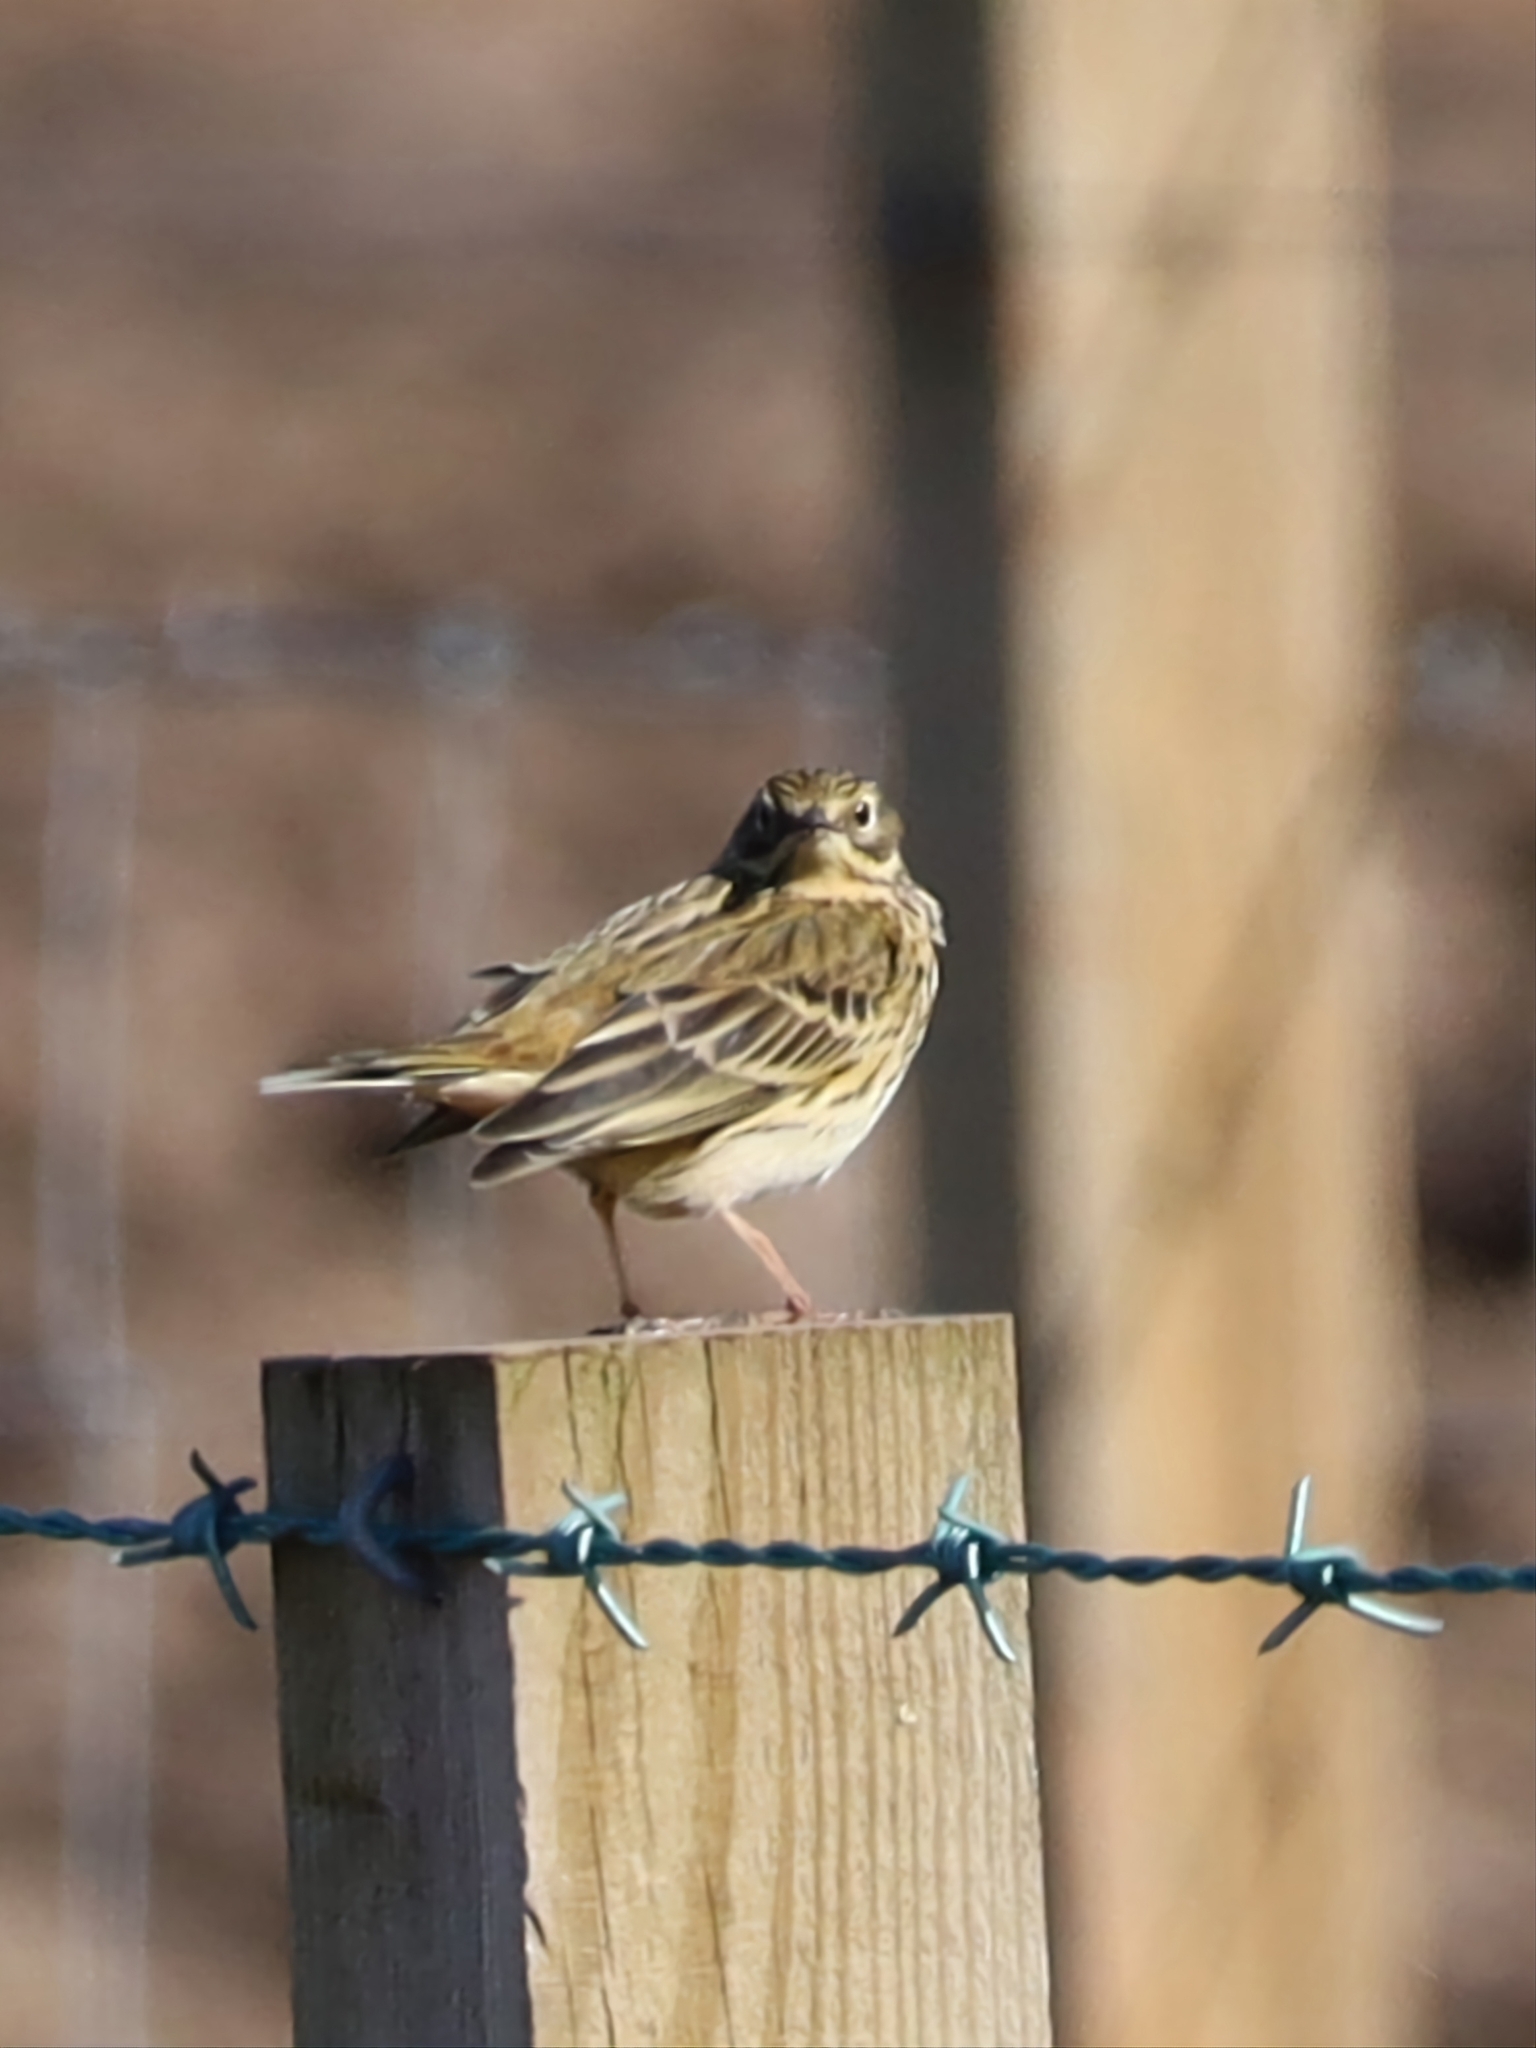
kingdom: Animalia
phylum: Chordata
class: Aves
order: Passeriformes
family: Motacillidae
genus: Anthus
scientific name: Anthus pratensis
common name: Meadow pipit
